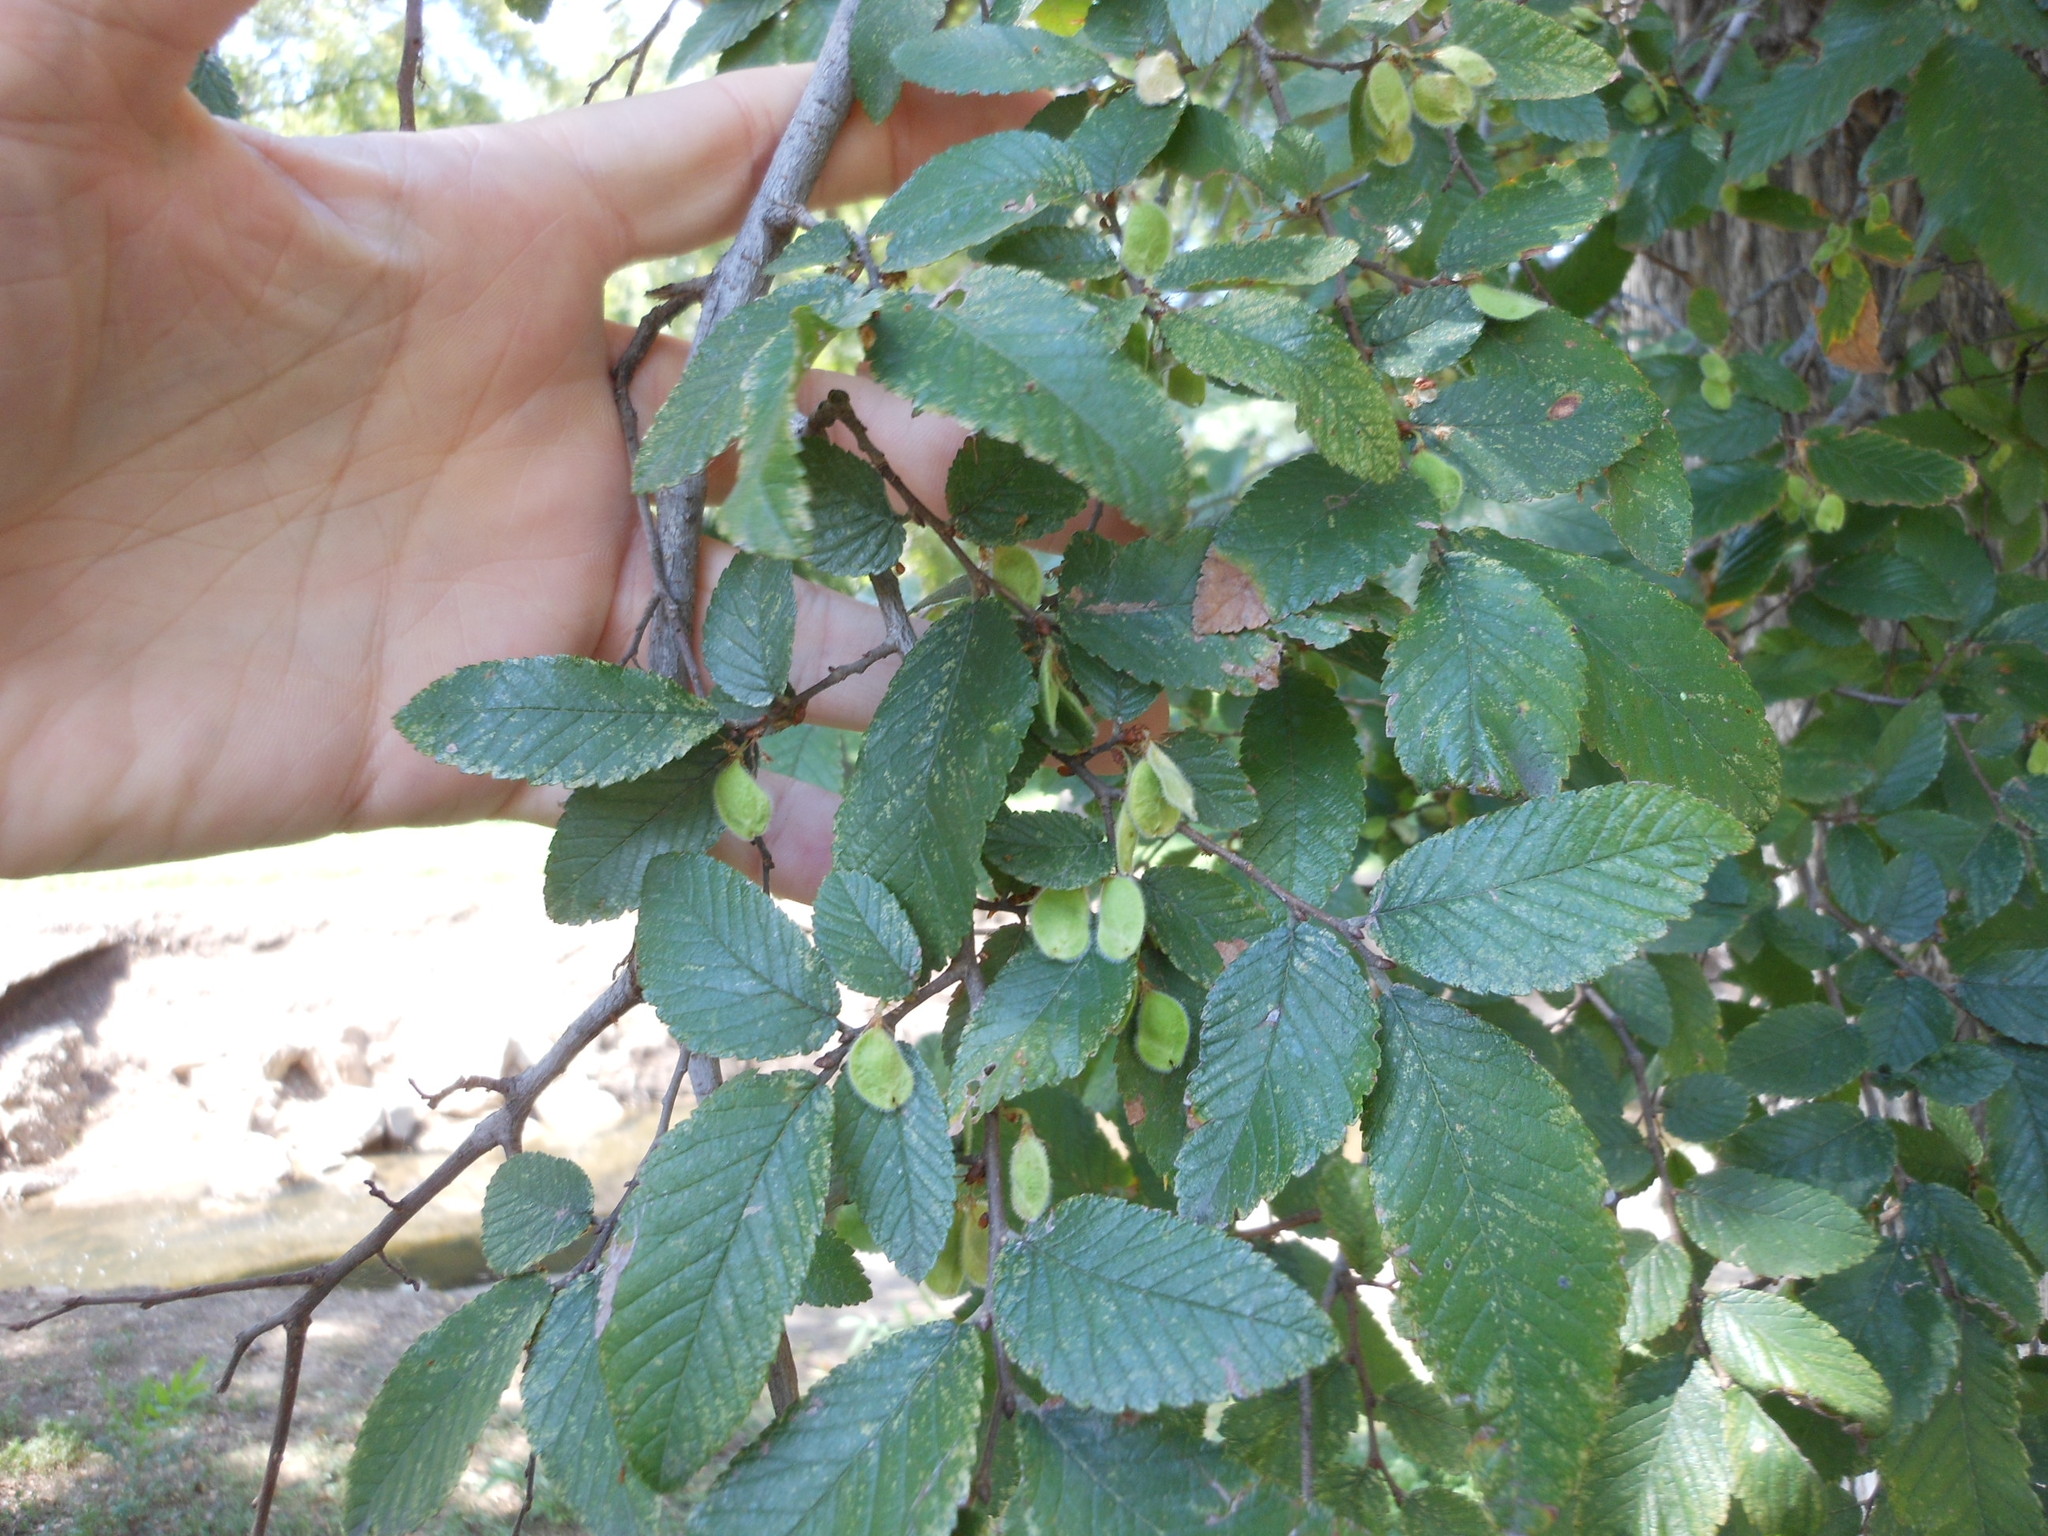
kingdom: Plantae
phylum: Tracheophyta
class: Magnoliopsida
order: Rosales
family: Ulmaceae
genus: Ulmus
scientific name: Ulmus crassifolia
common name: Basket elm
